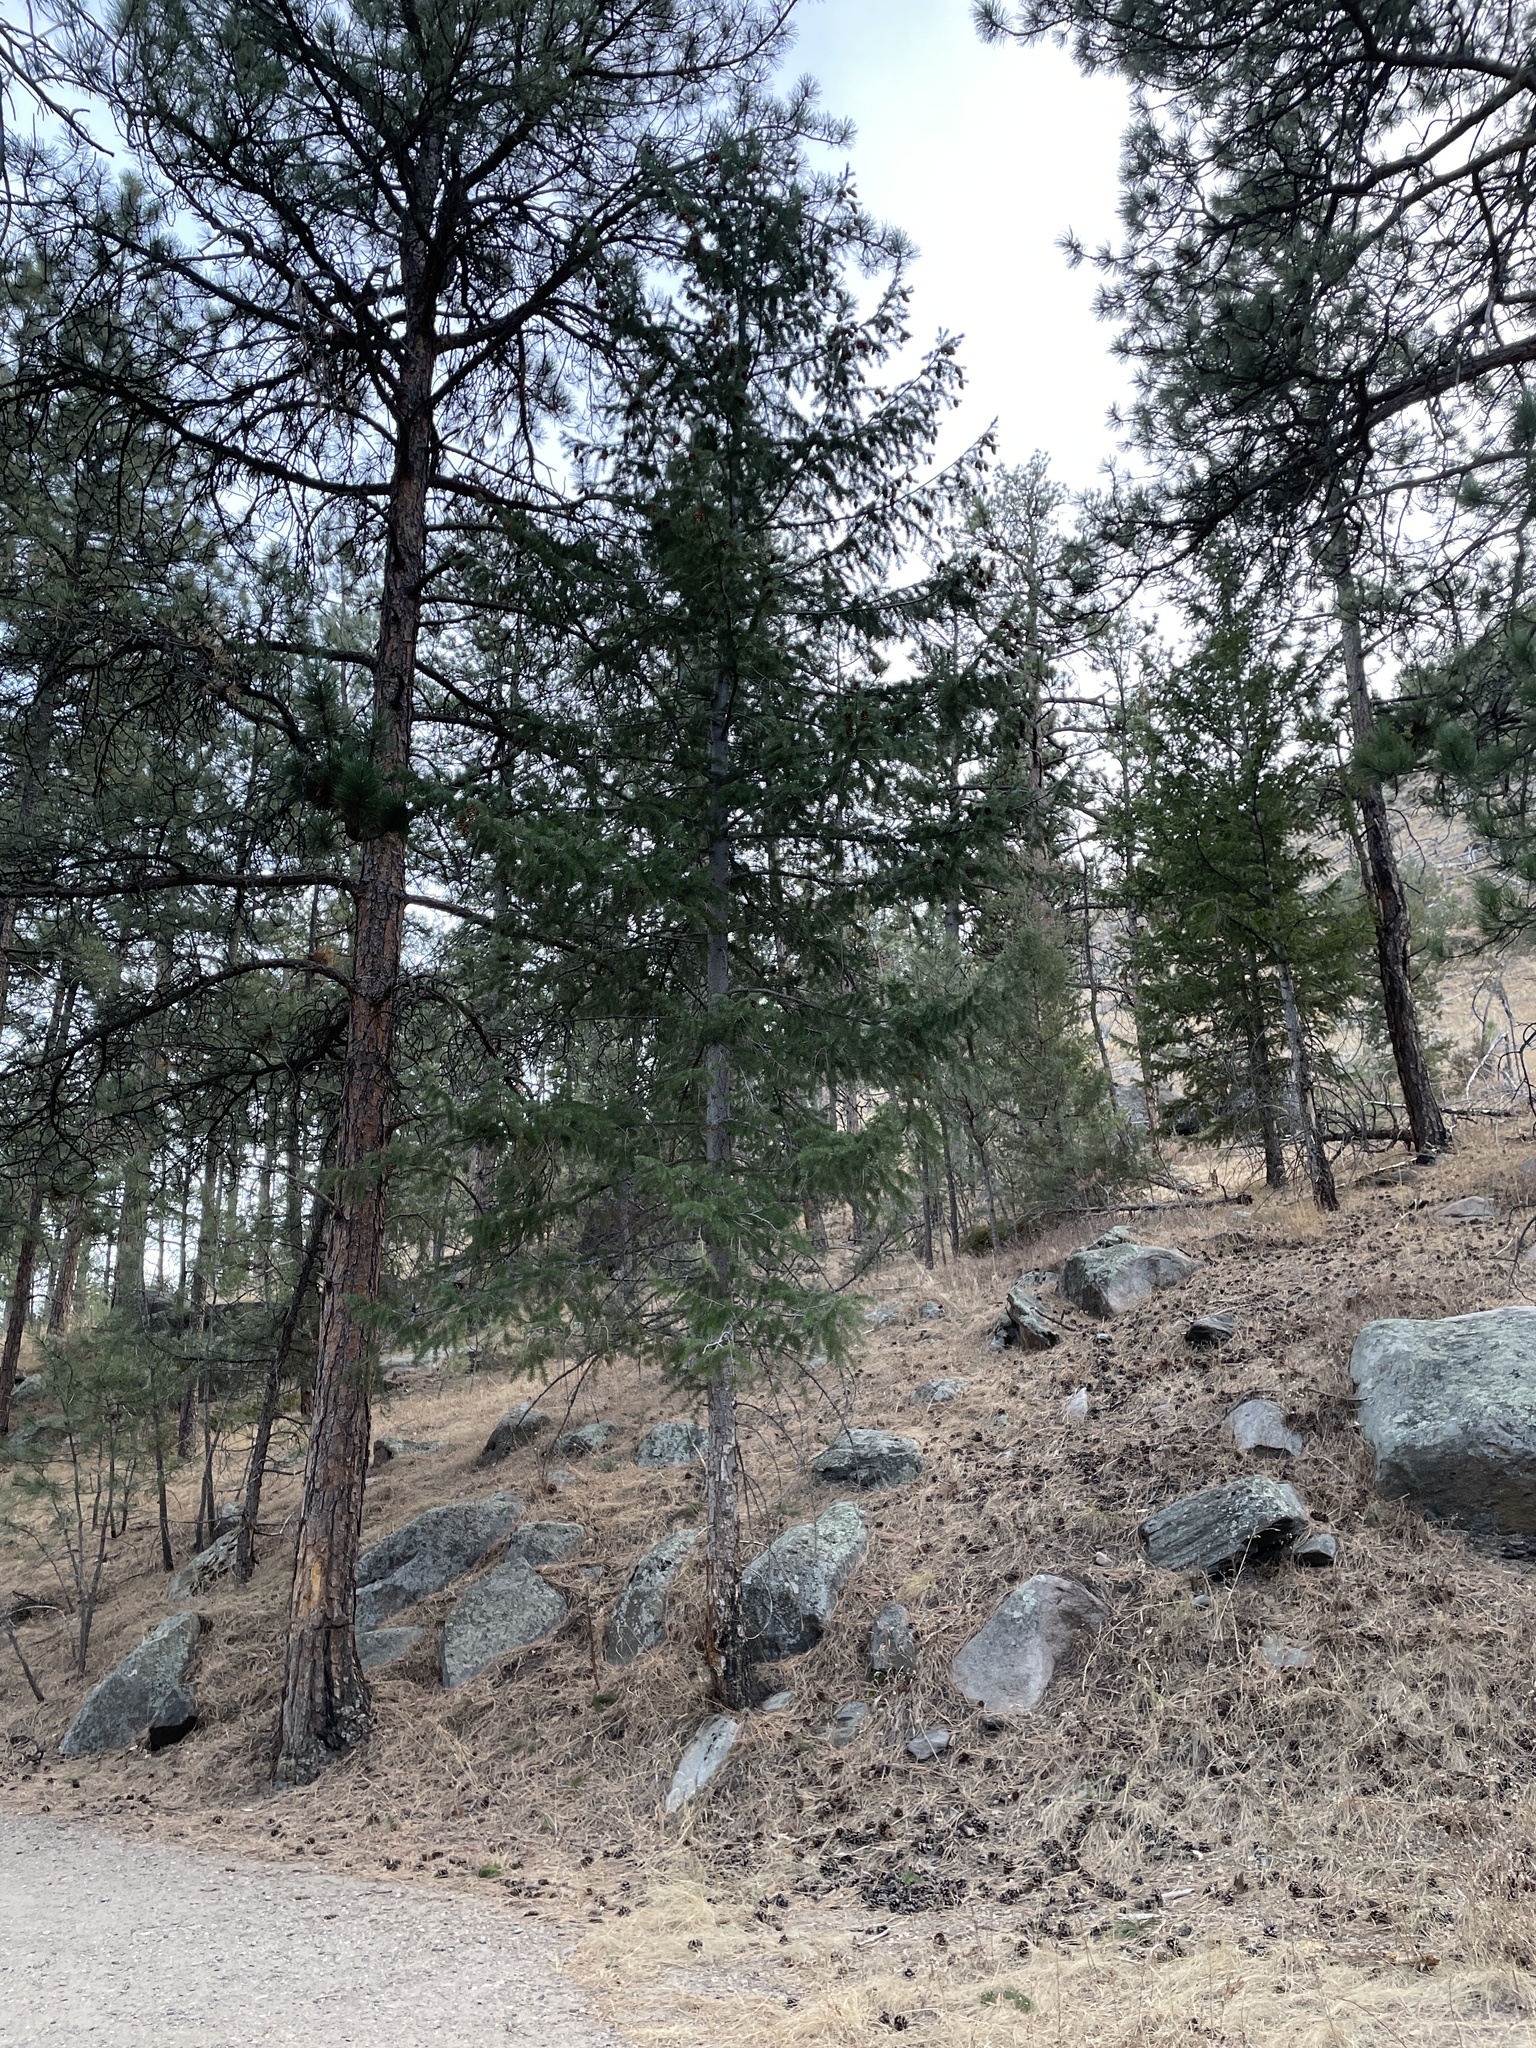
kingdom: Plantae
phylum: Tracheophyta
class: Pinopsida
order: Pinales
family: Pinaceae
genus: Pseudotsuga
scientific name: Pseudotsuga menziesii
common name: Douglas fir
